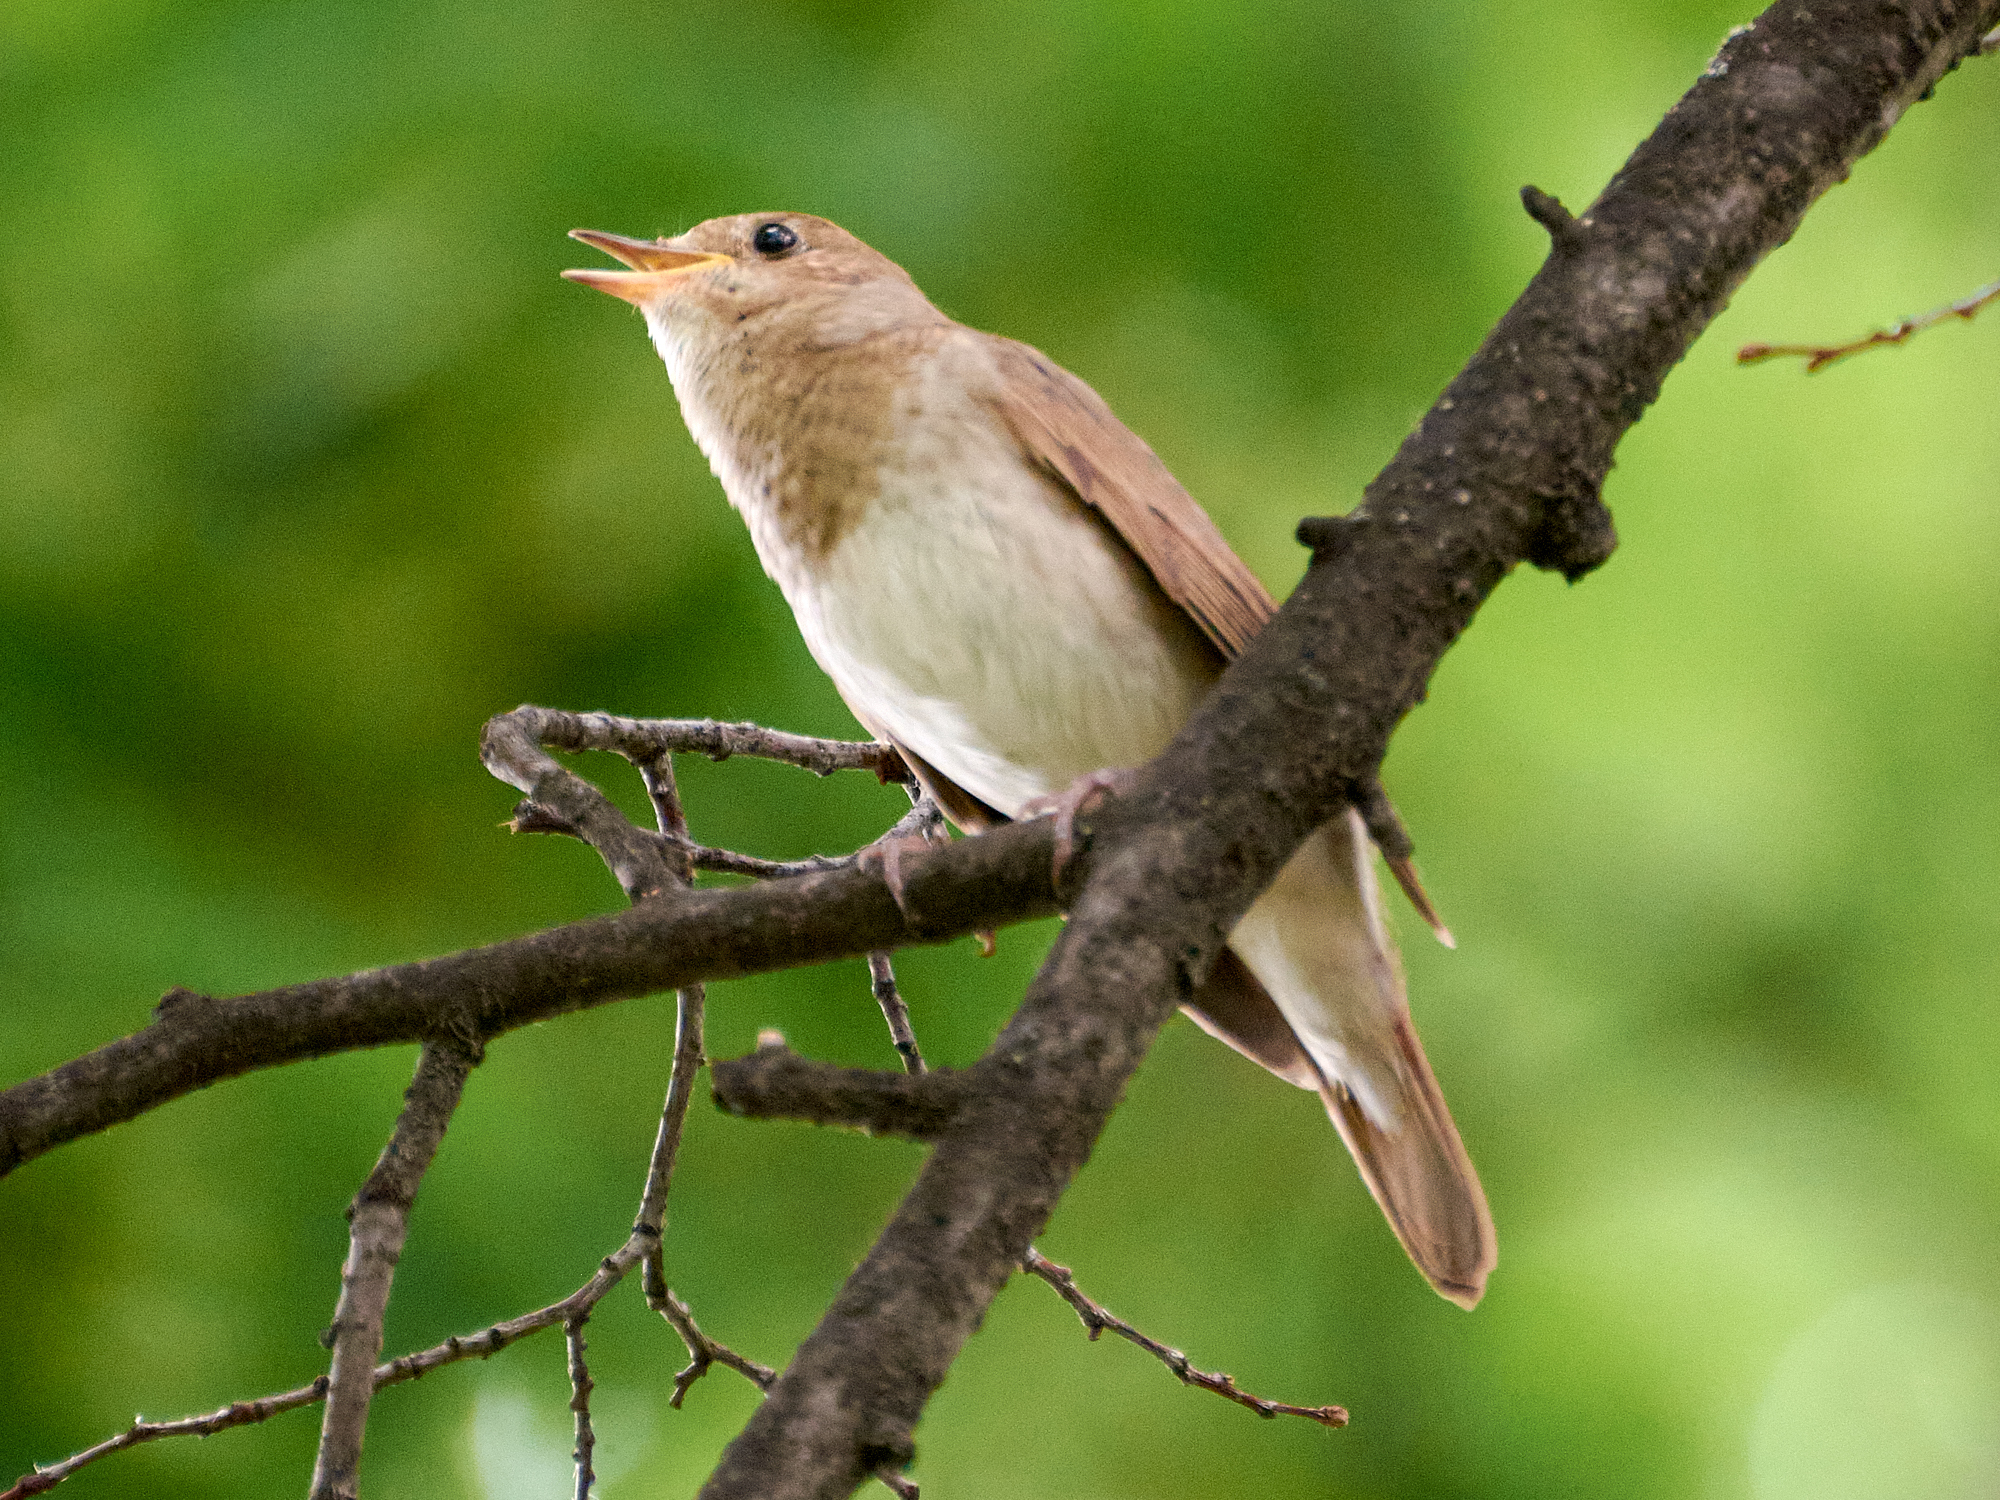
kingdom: Animalia
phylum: Chordata
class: Aves
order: Passeriformes
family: Muscicapidae
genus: Luscinia
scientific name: Luscinia luscinia
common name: Thrush nightingale
